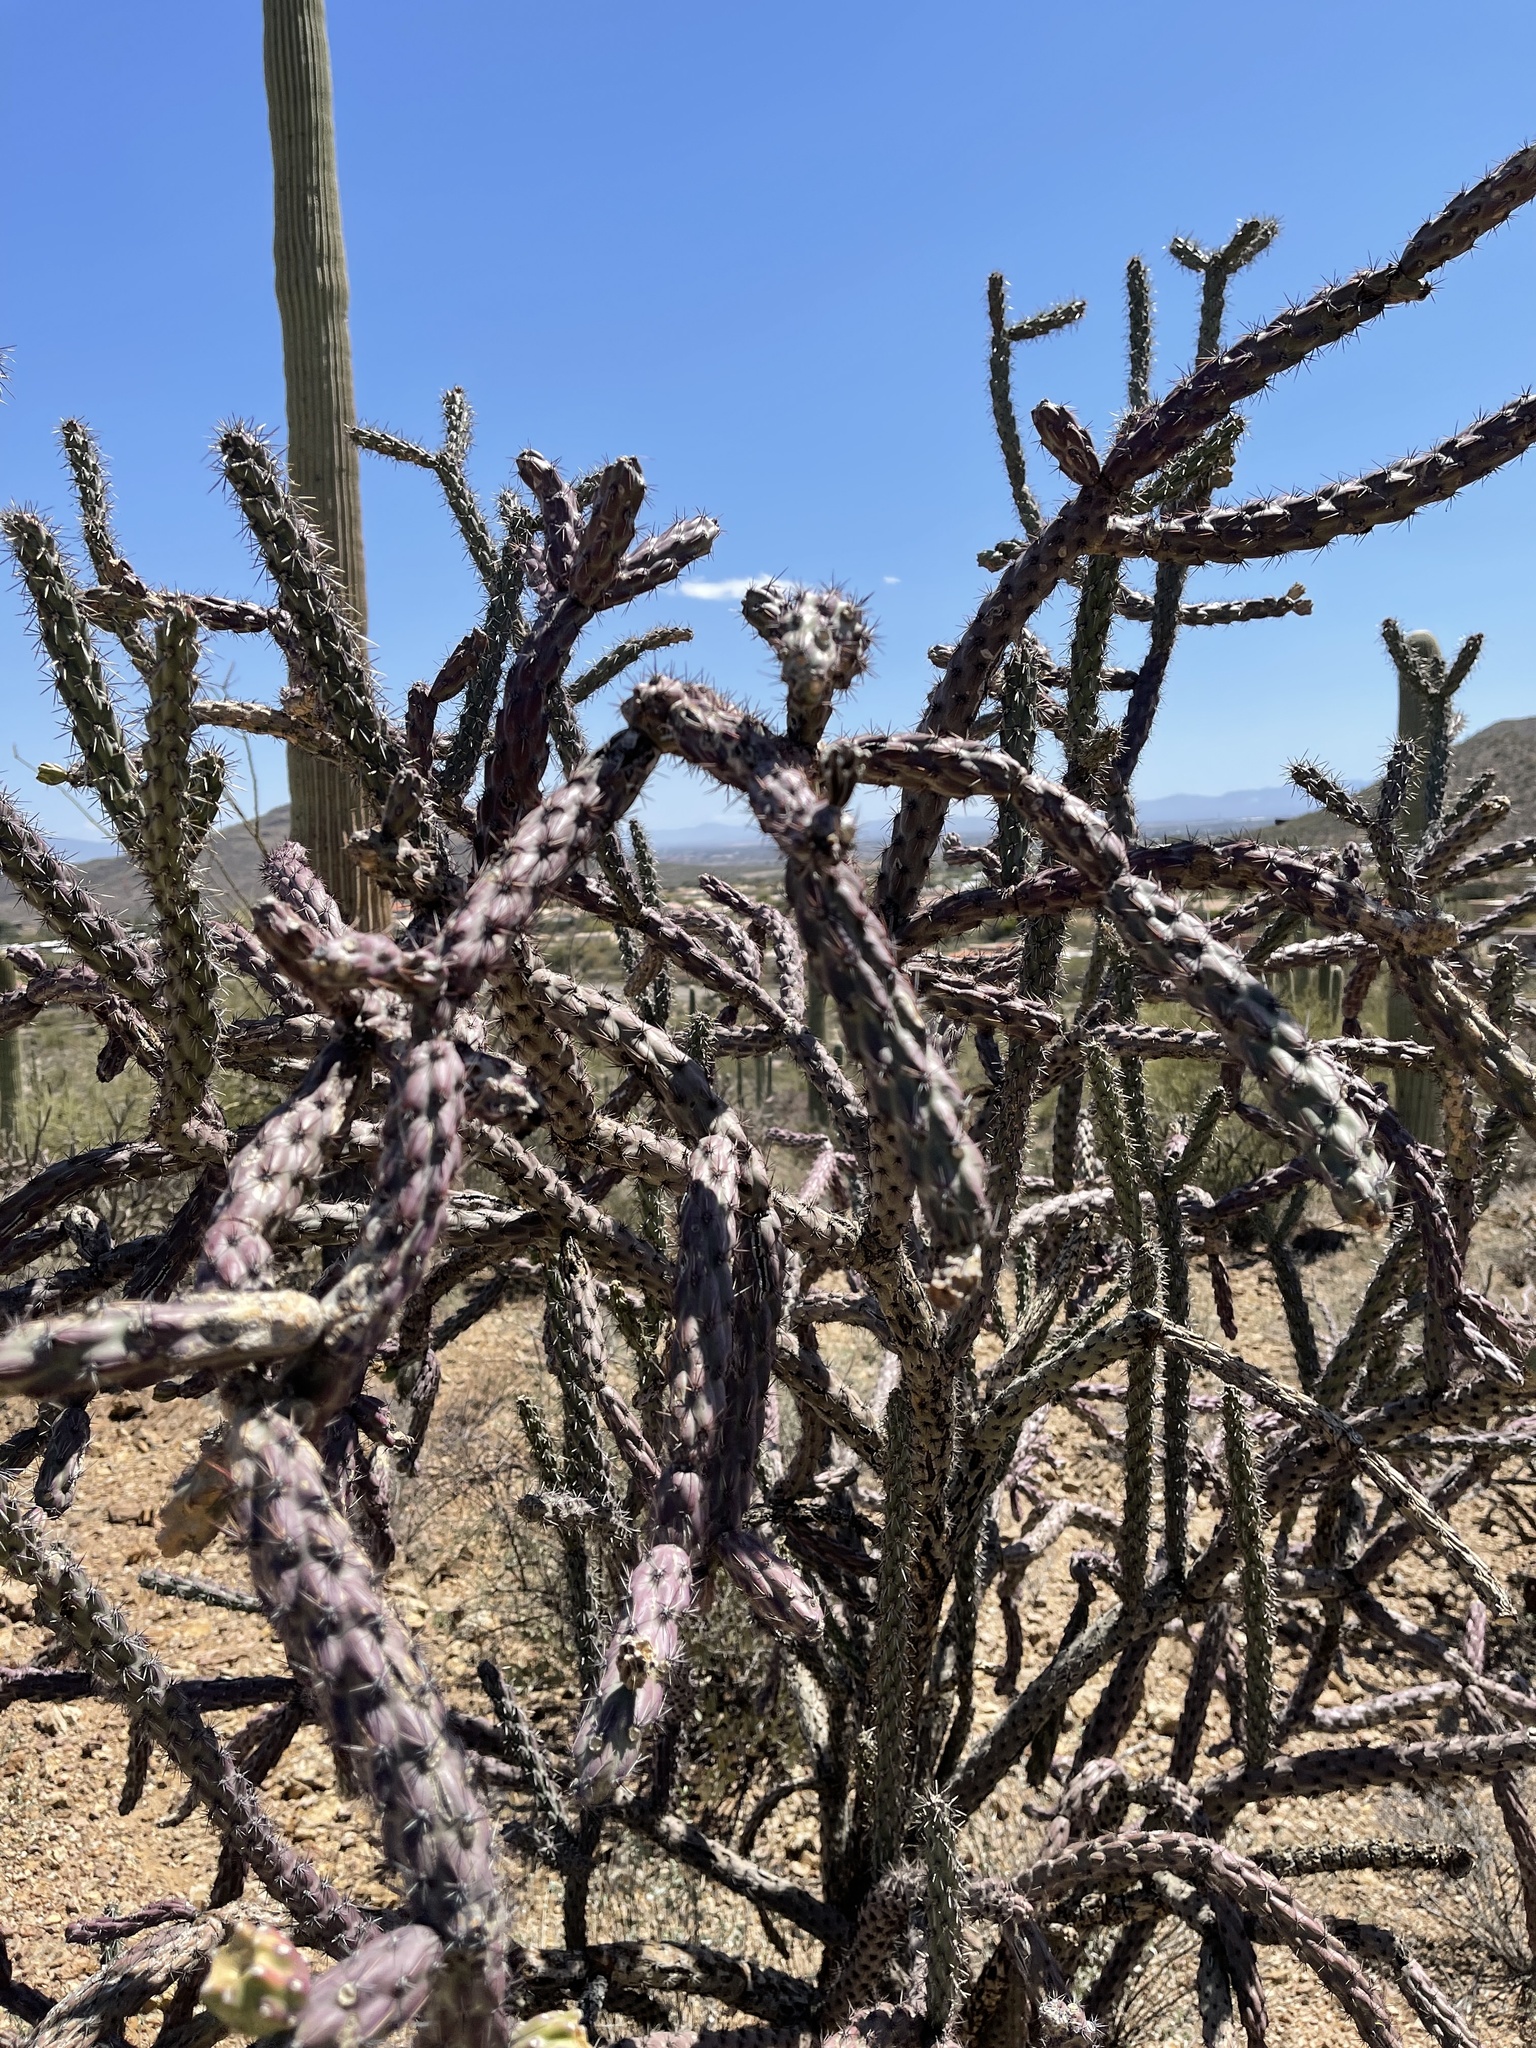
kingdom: Plantae
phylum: Tracheophyta
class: Magnoliopsida
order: Caryophyllales
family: Cactaceae
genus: Cylindropuntia
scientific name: Cylindropuntia thurberi
